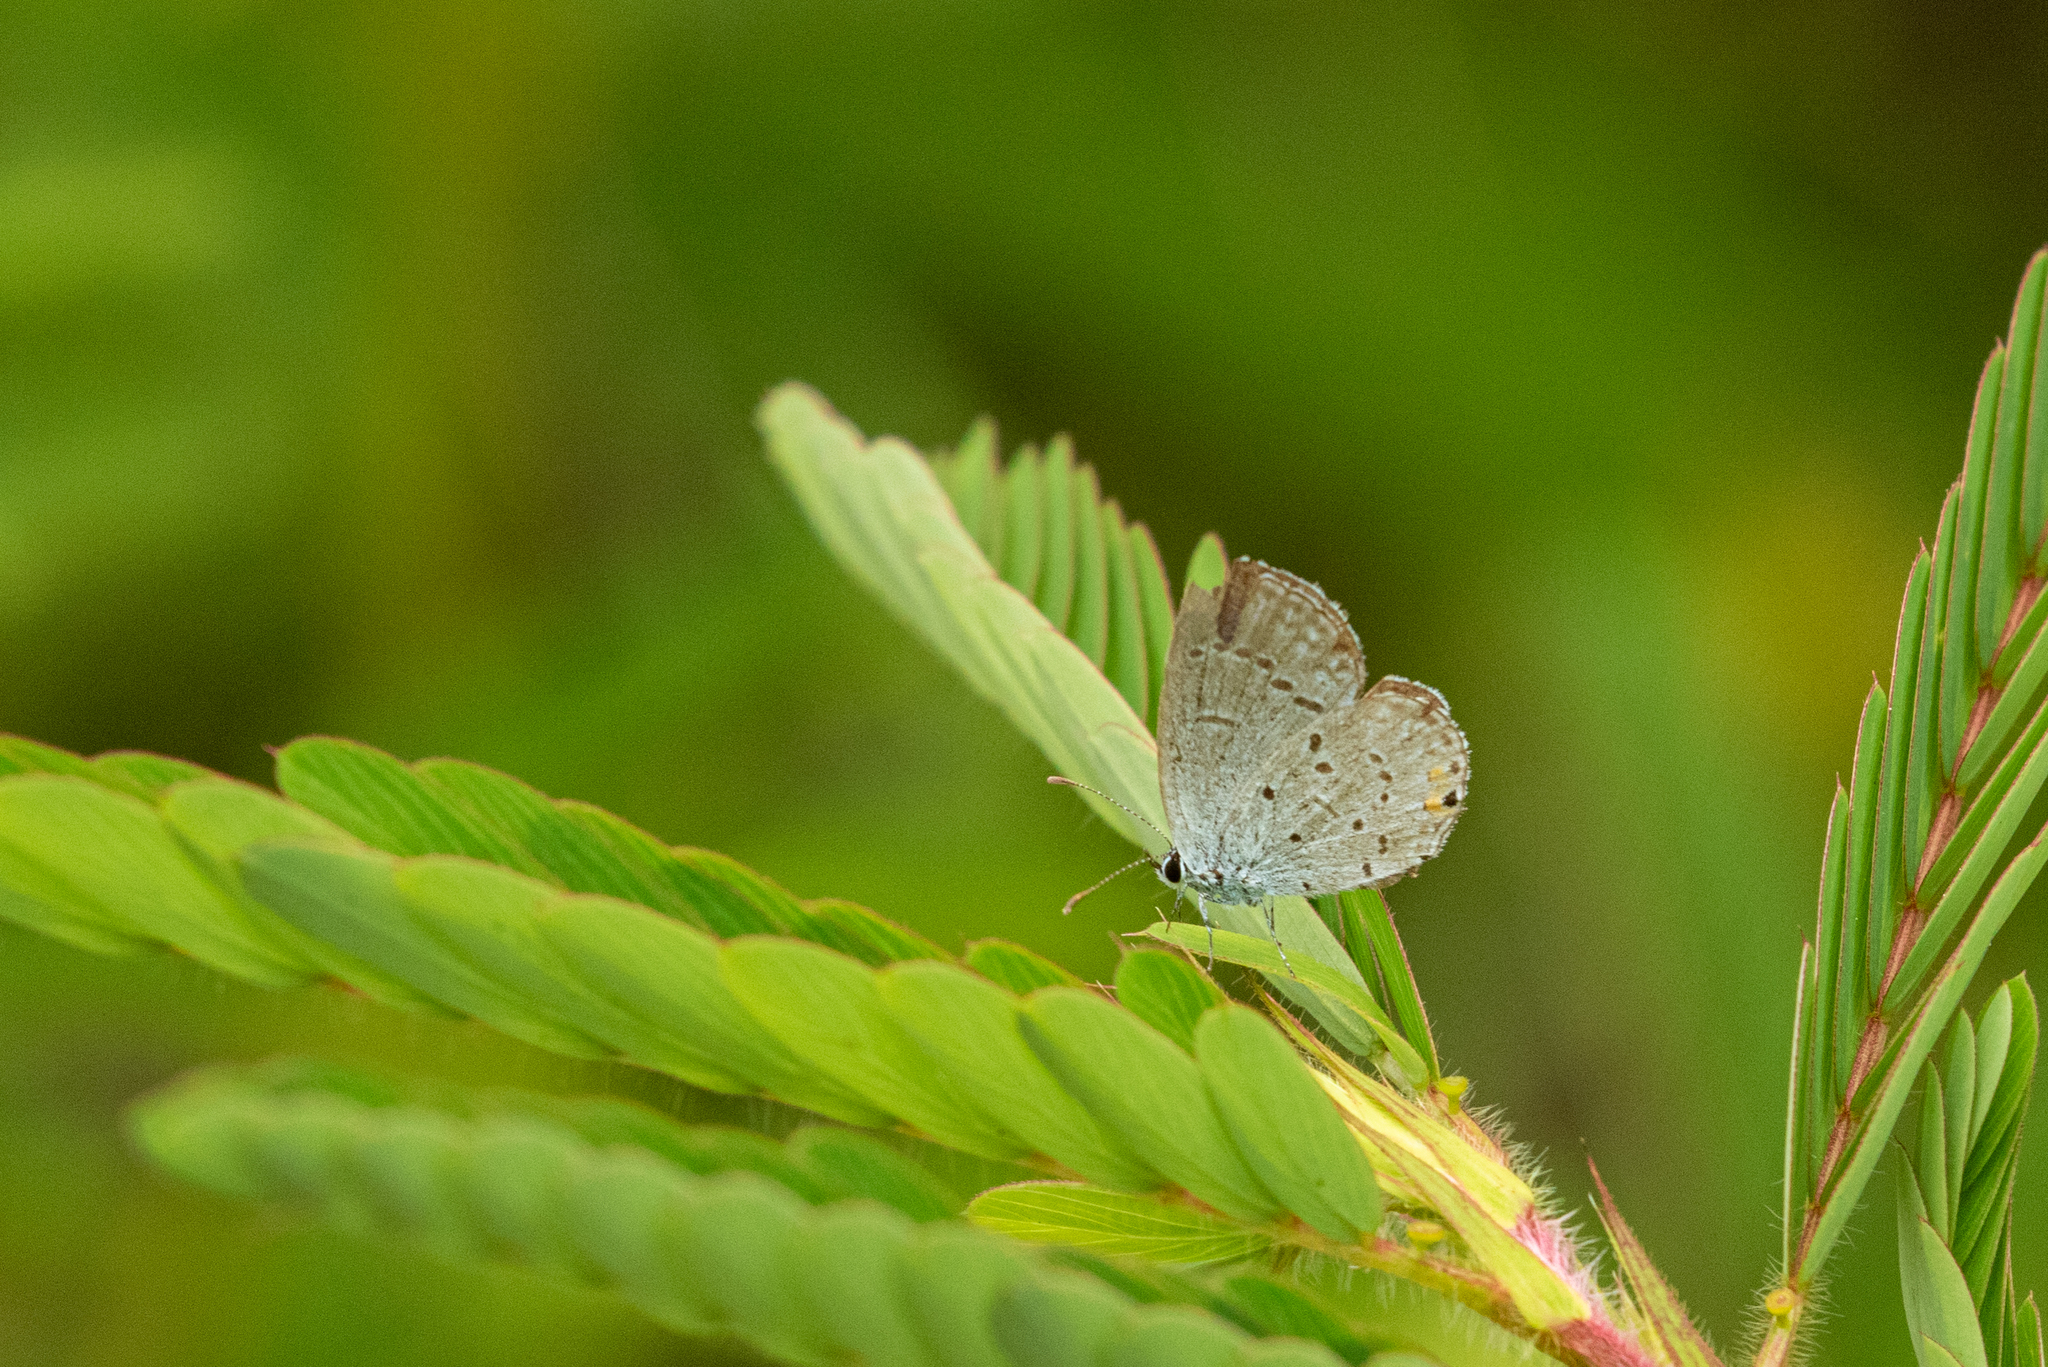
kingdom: Animalia
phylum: Arthropoda
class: Insecta
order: Lepidoptera
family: Lycaenidae
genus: Elkalyce
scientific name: Elkalyce comyntas
